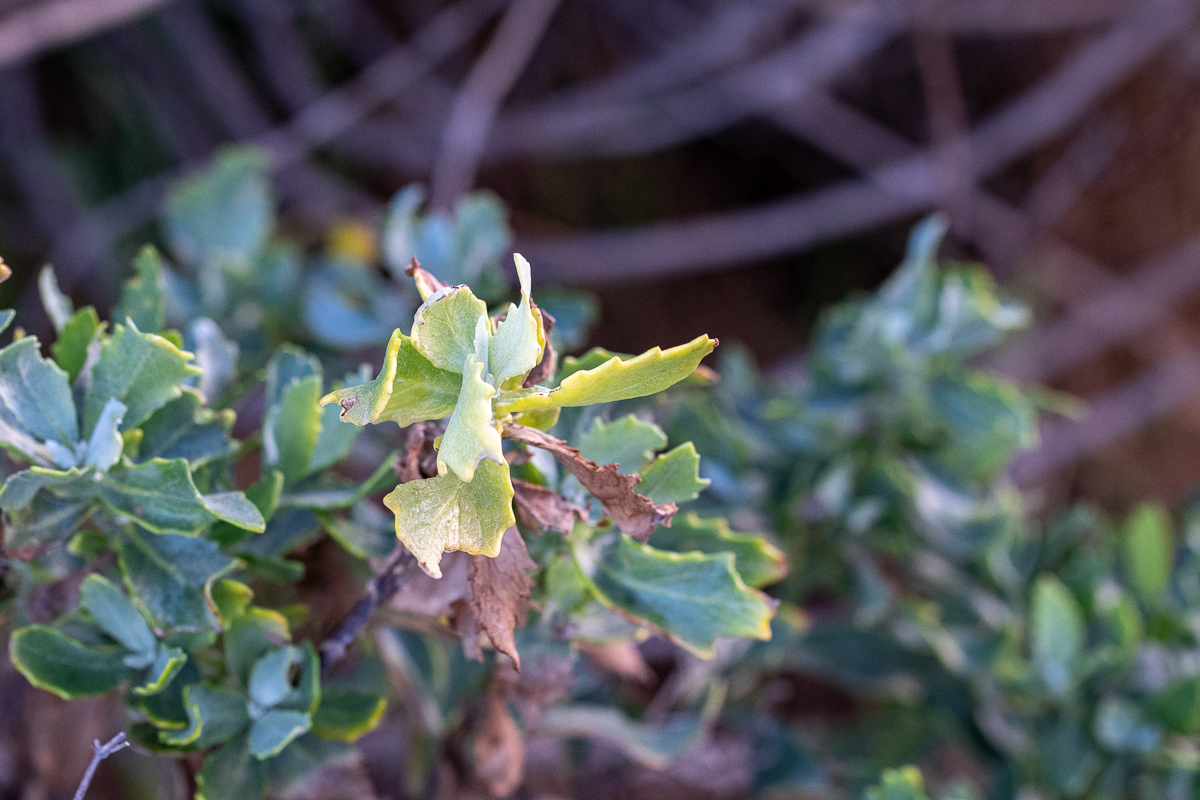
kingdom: Plantae
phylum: Tracheophyta
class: Magnoliopsida
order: Asterales
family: Asteraceae
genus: Senecio
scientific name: Senecio halimifolius
